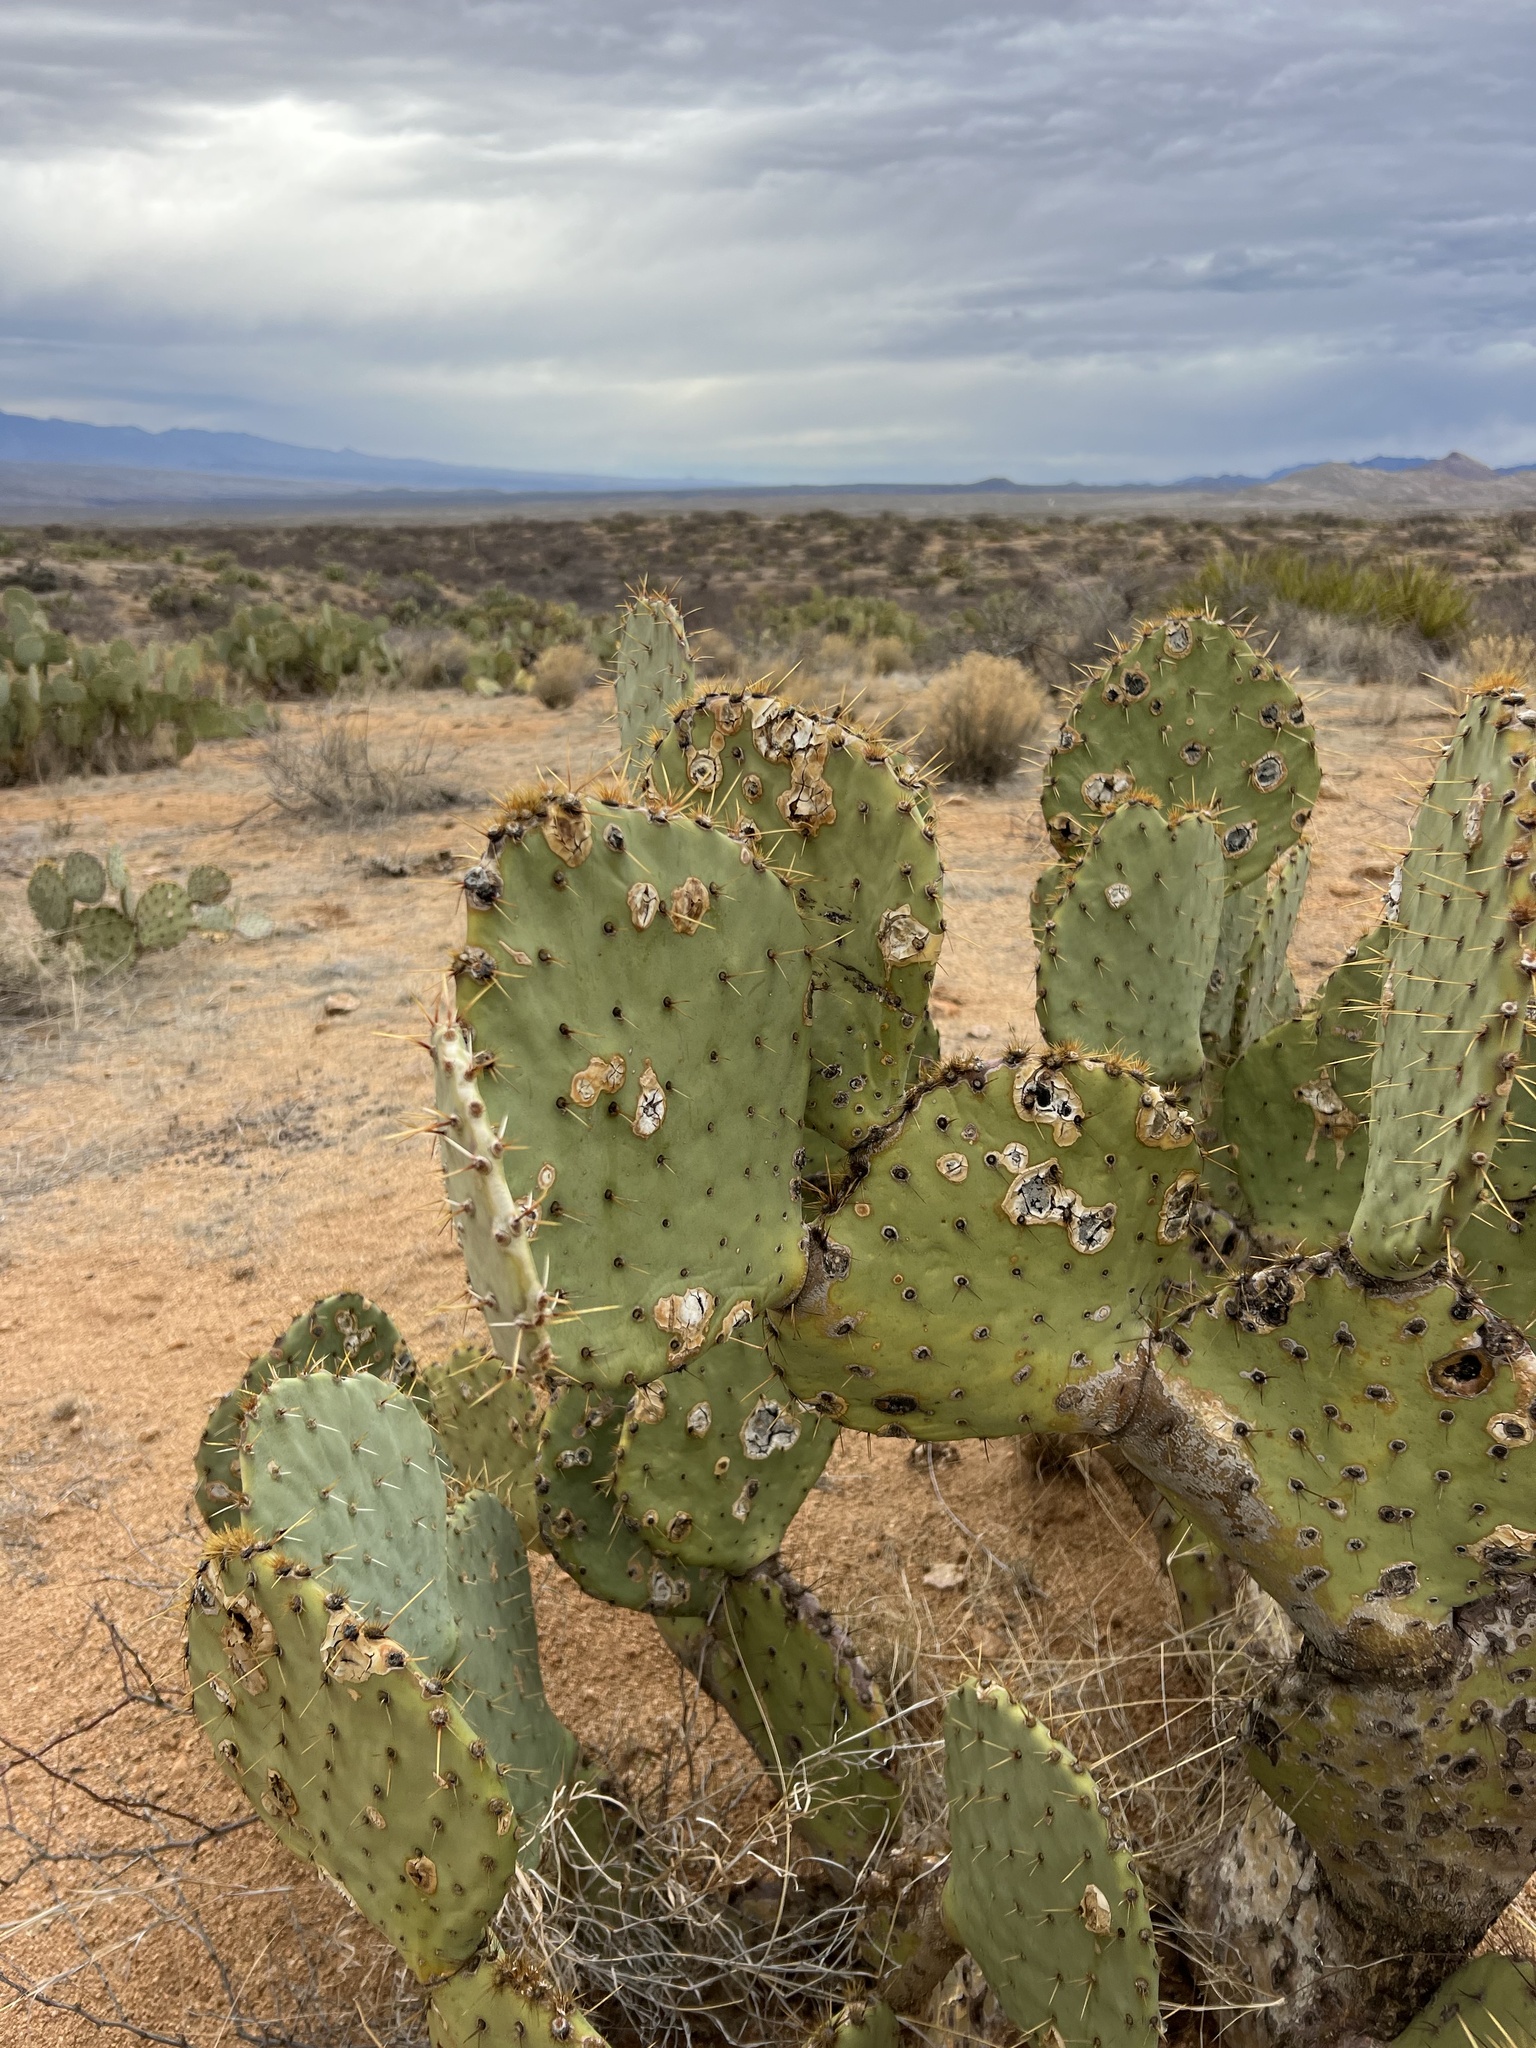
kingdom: Plantae
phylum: Tracheophyta
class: Magnoliopsida
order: Caryophyllales
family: Cactaceae
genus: Opuntia
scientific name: Opuntia engelmannii
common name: Cactus-apple
